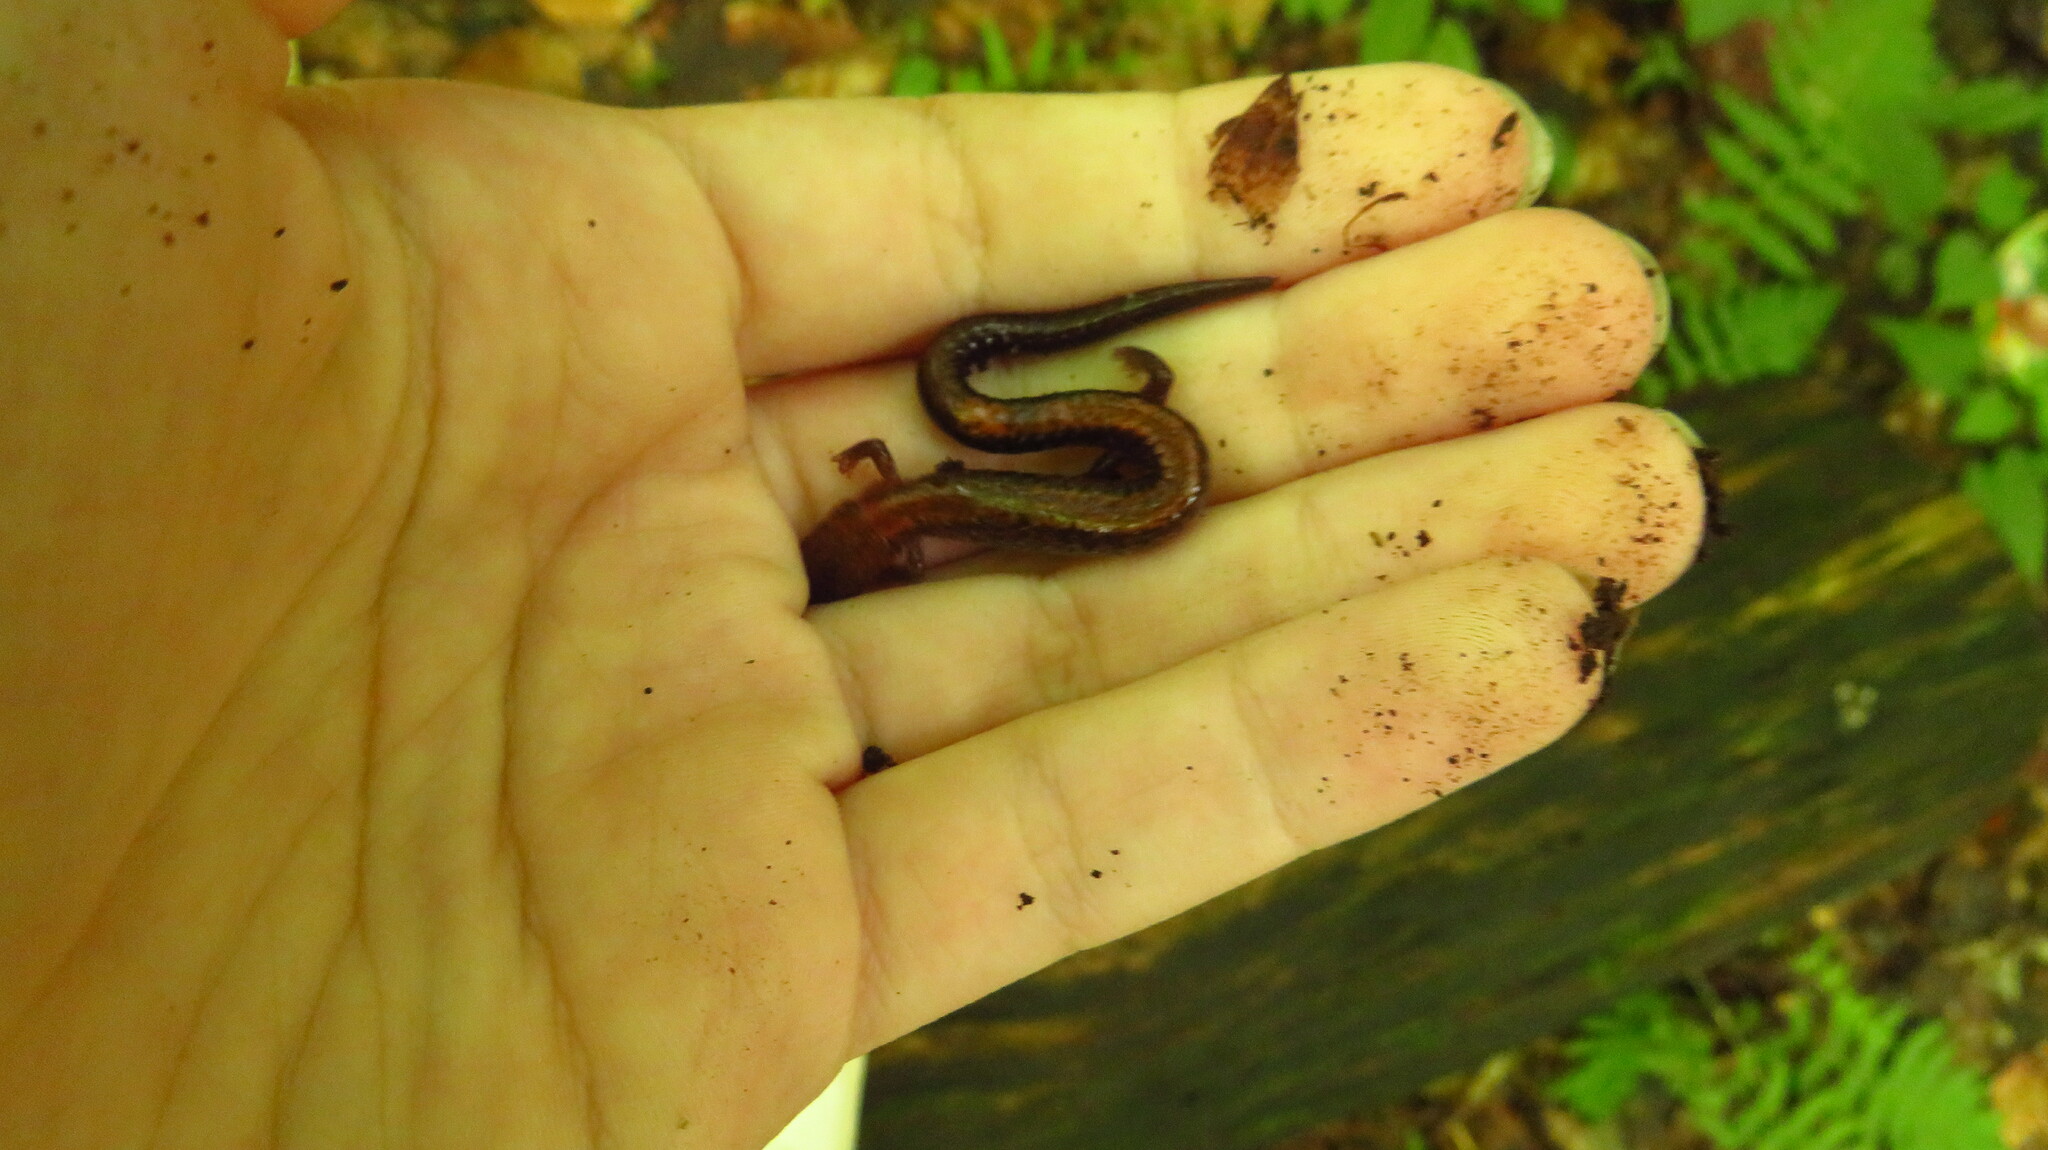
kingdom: Animalia
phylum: Chordata
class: Amphibia
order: Caudata
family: Plethodontidae
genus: Plethodon
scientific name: Plethodon cinereus
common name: Redback salamander
